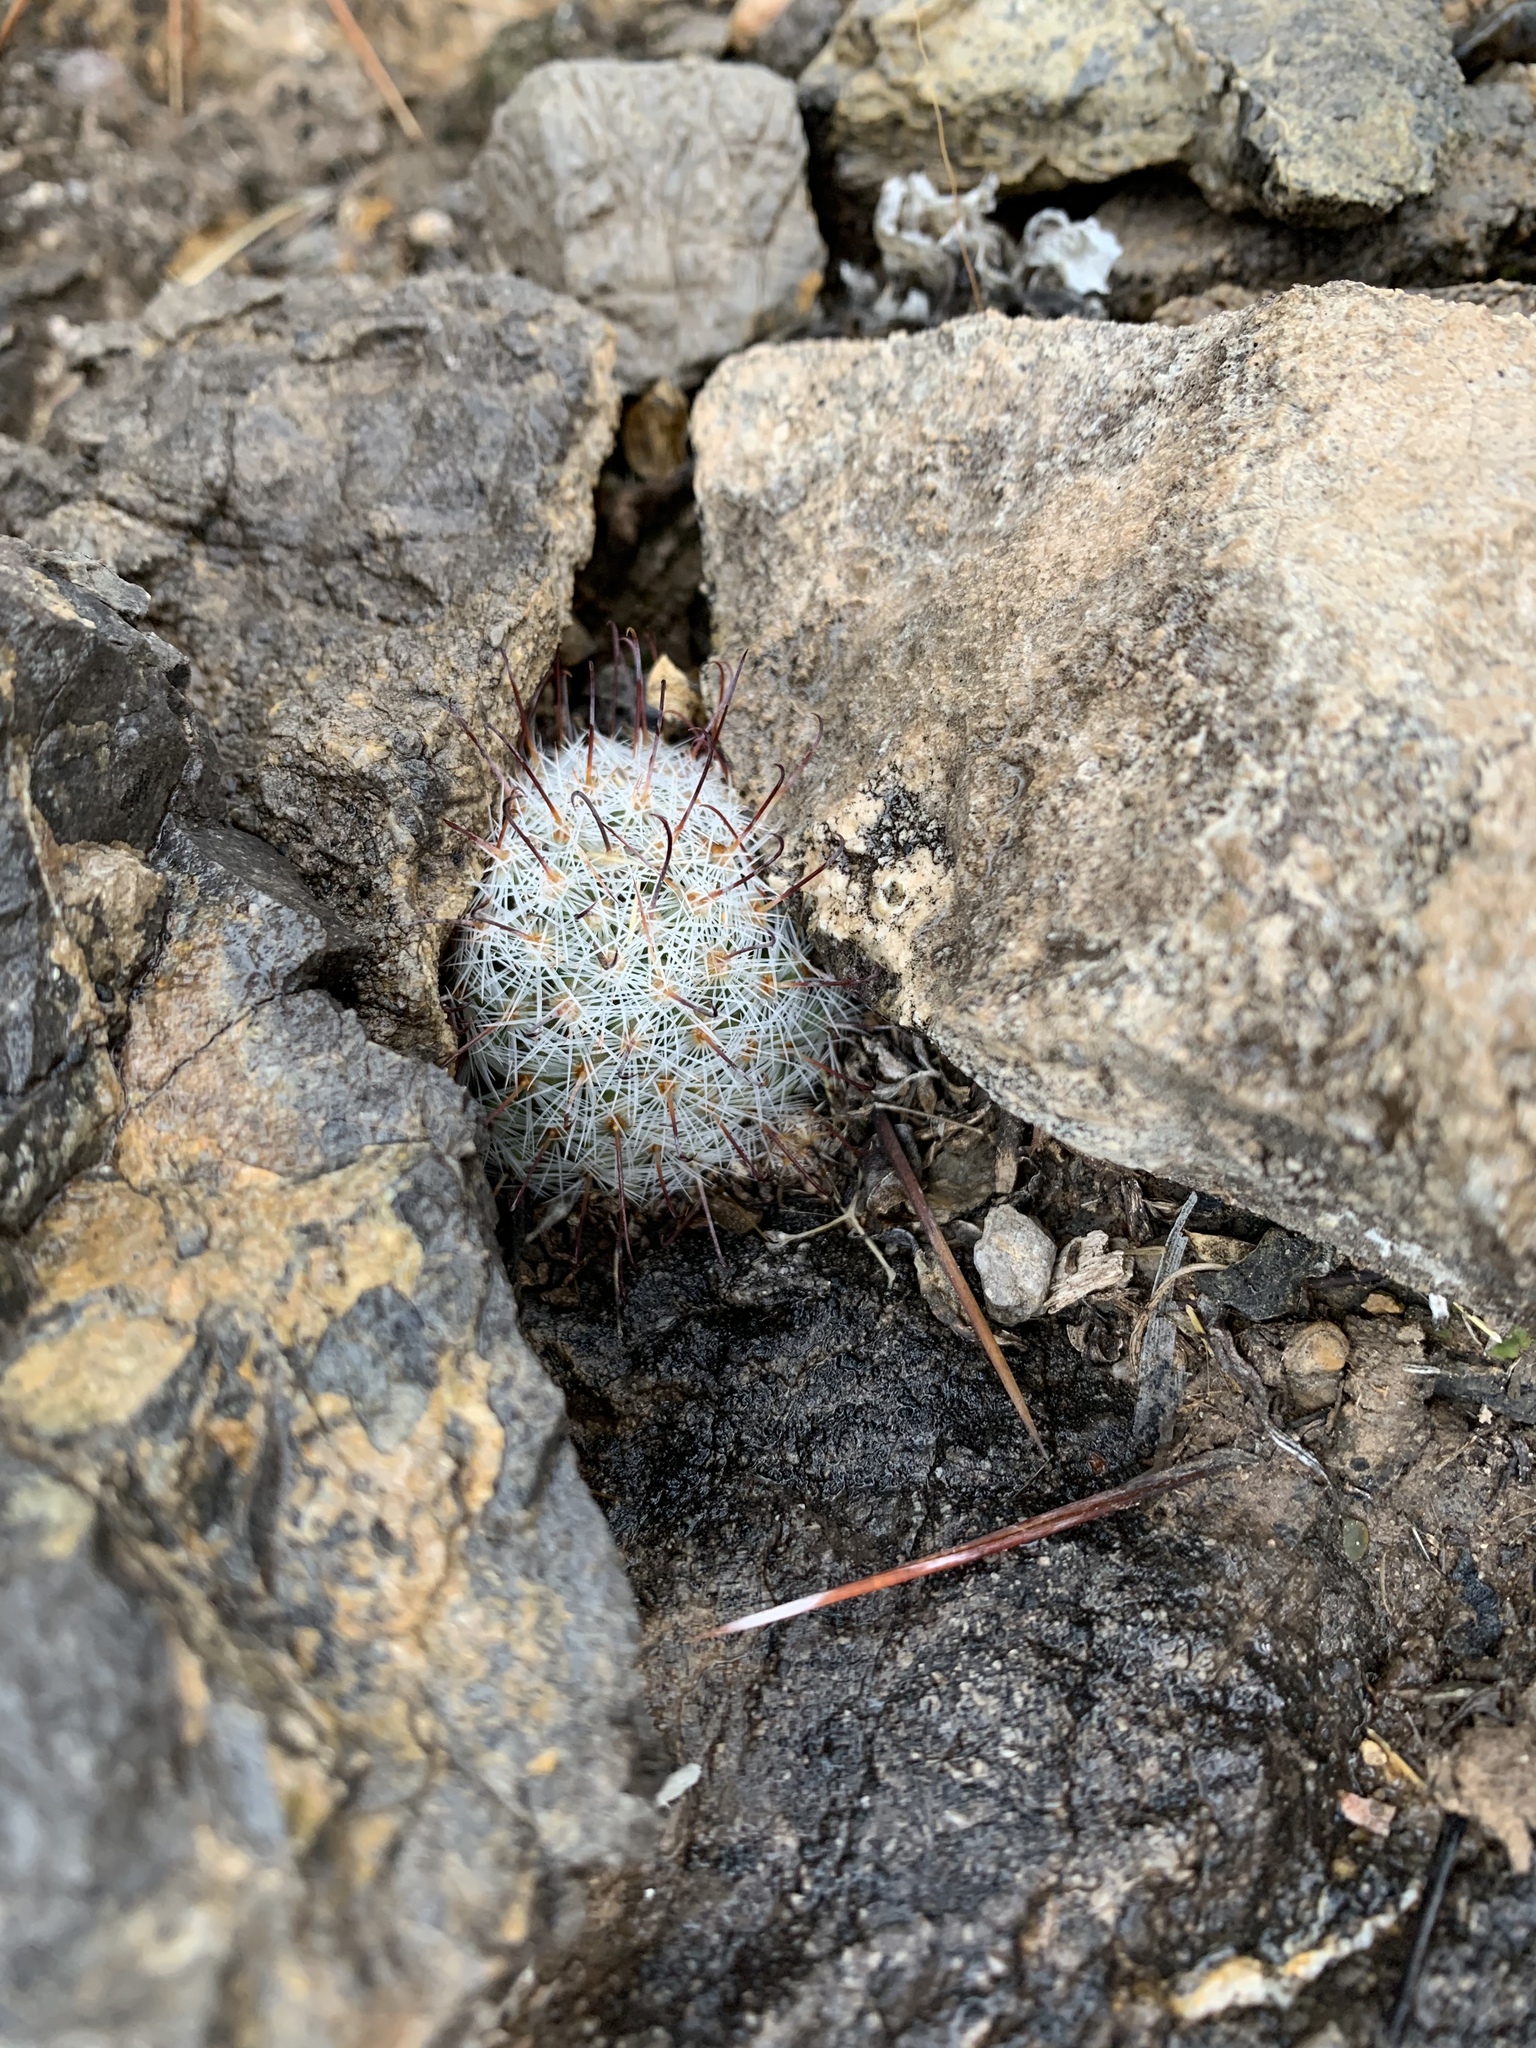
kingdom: Plantae
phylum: Tracheophyta
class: Magnoliopsida
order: Caryophyllales
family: Cactaceae
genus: Cochemiea
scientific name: Cochemiea grahamii
